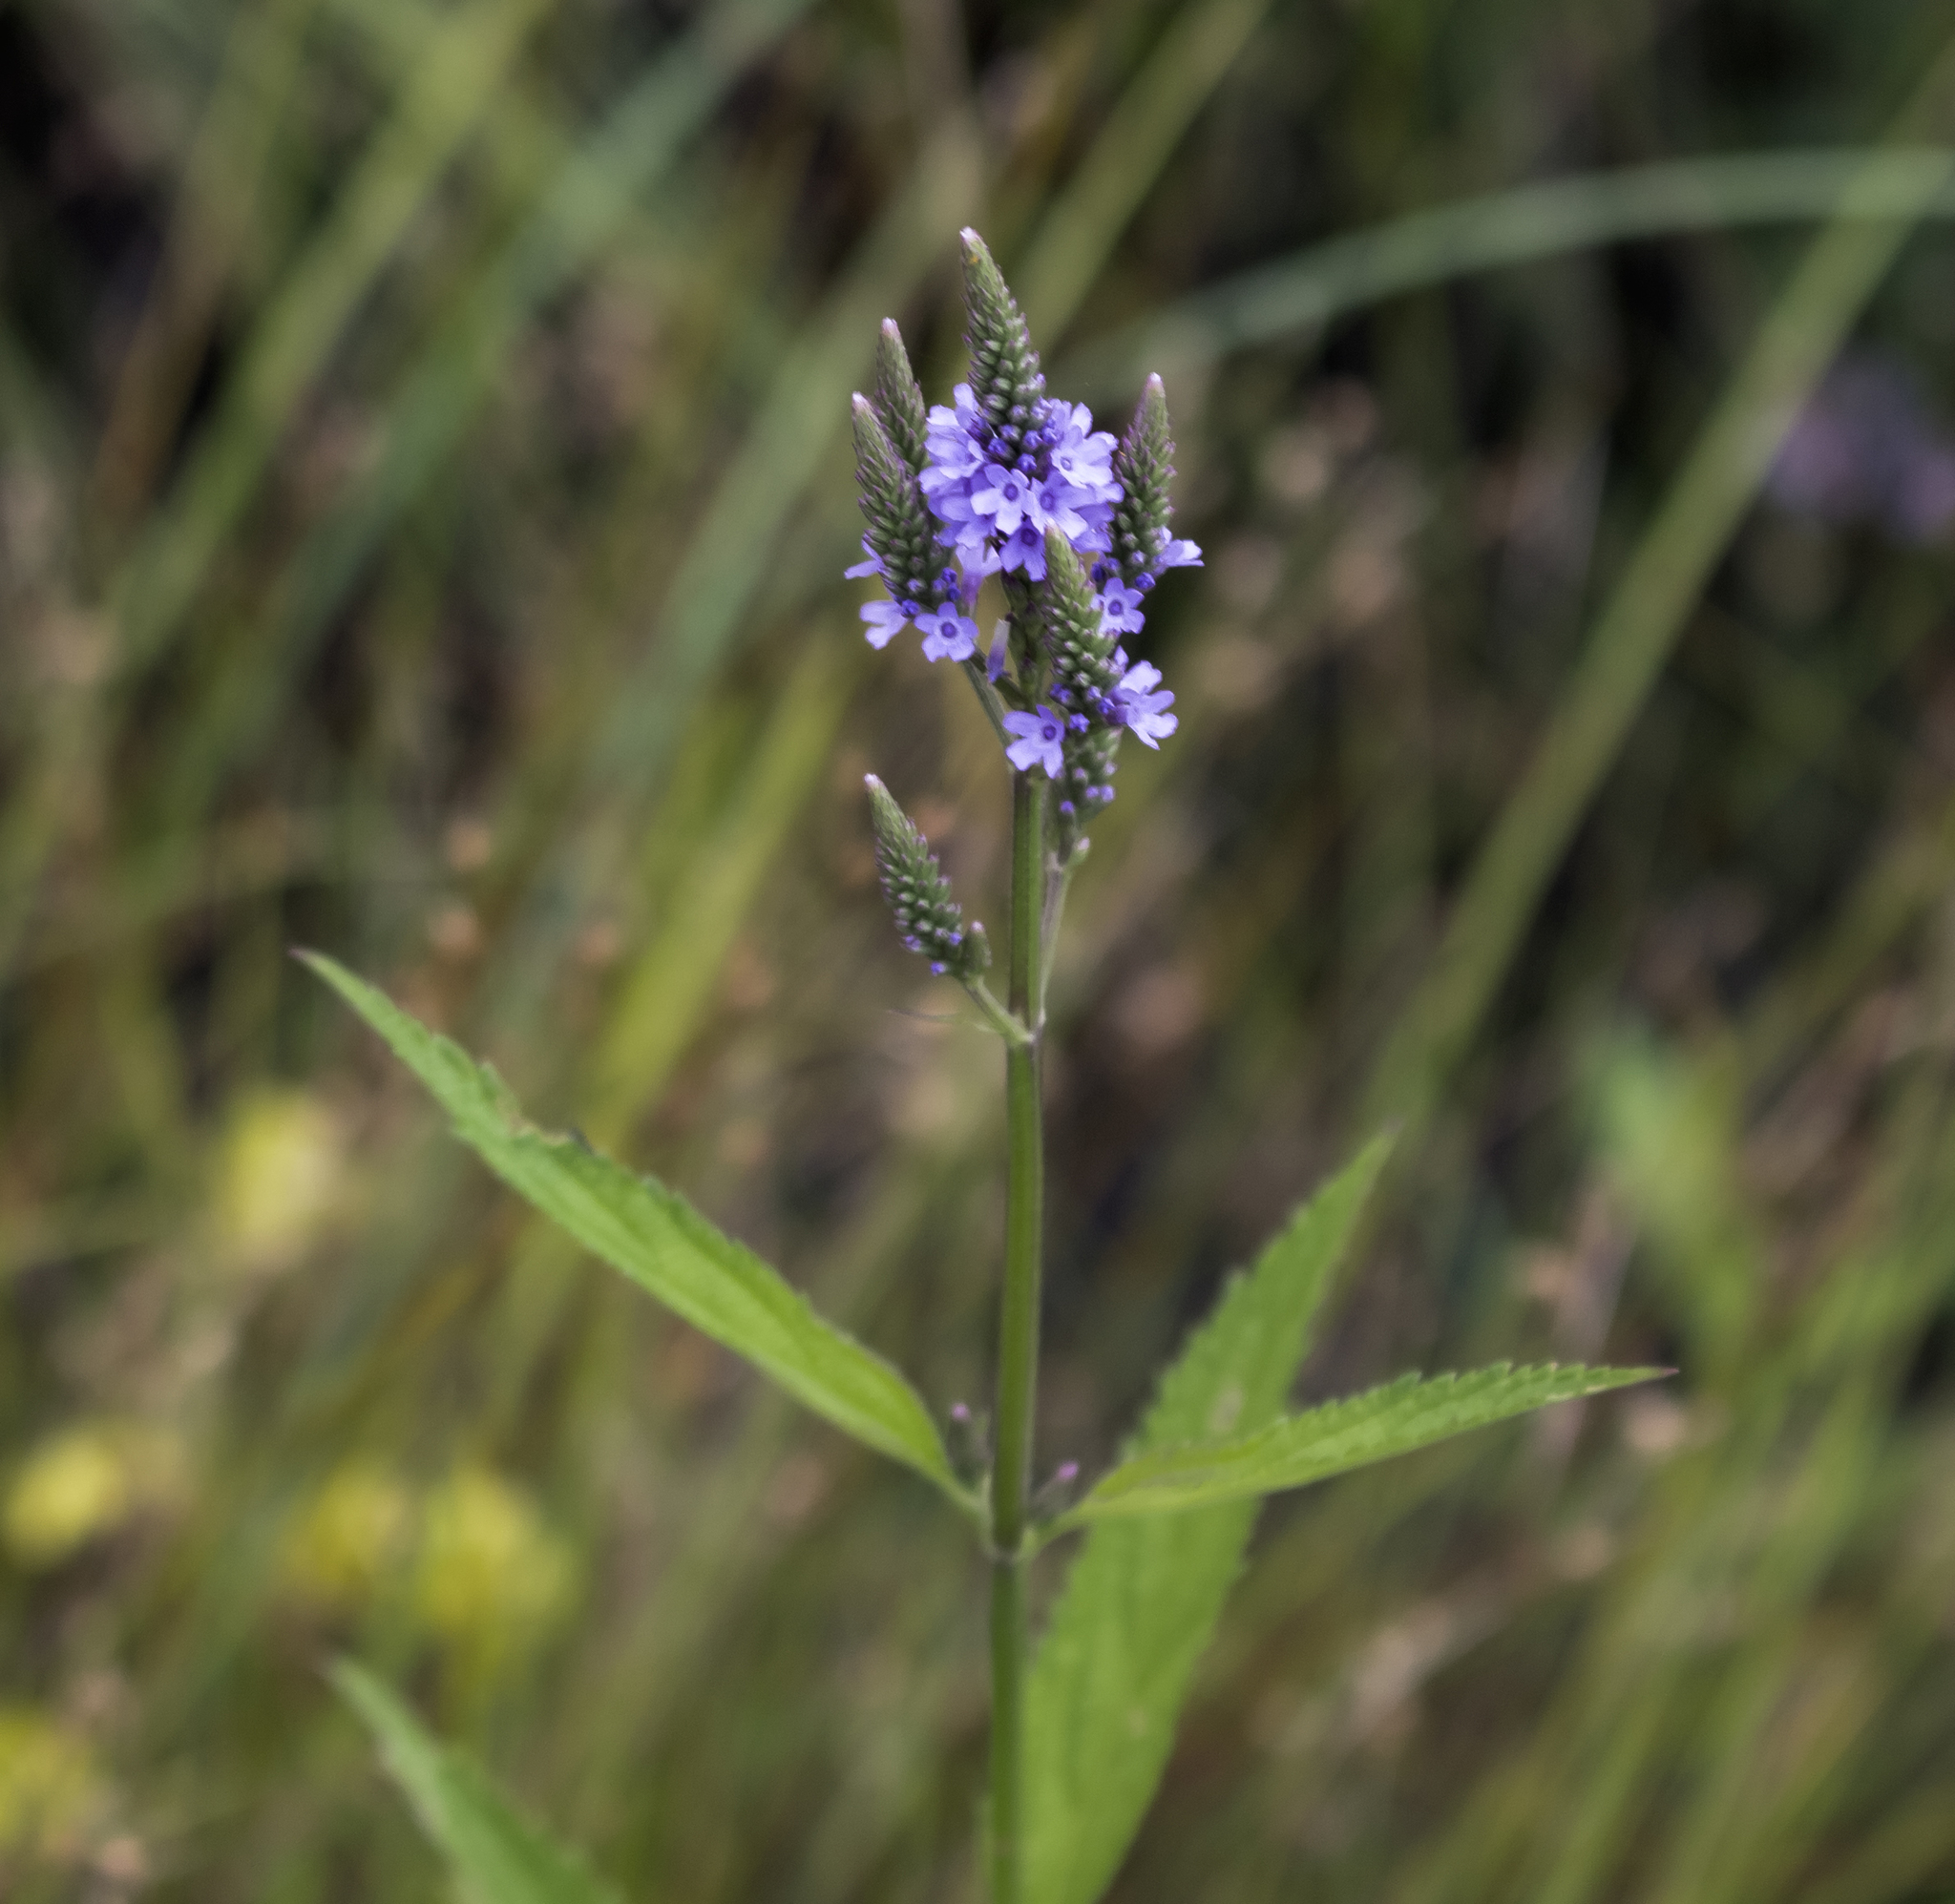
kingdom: Plantae
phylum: Tracheophyta
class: Magnoliopsida
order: Lamiales
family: Verbenaceae
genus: Verbena
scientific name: Verbena hastata
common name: American blue vervain
